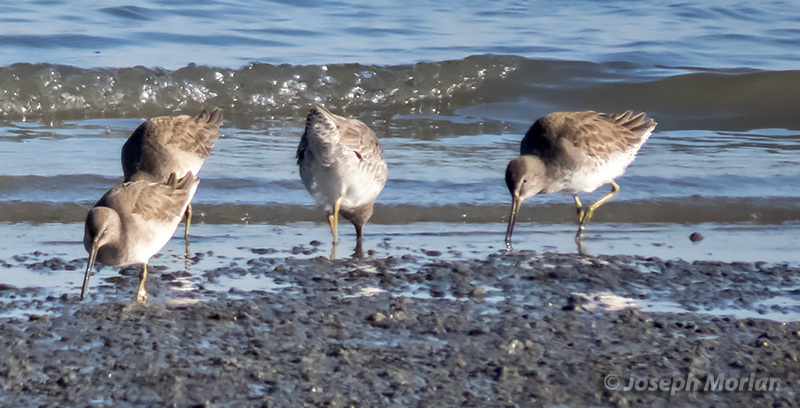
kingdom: Animalia
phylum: Chordata
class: Aves
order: Charadriiformes
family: Scolopacidae
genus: Limnodromus
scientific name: Limnodromus griseus
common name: Short-billed dowitcher
